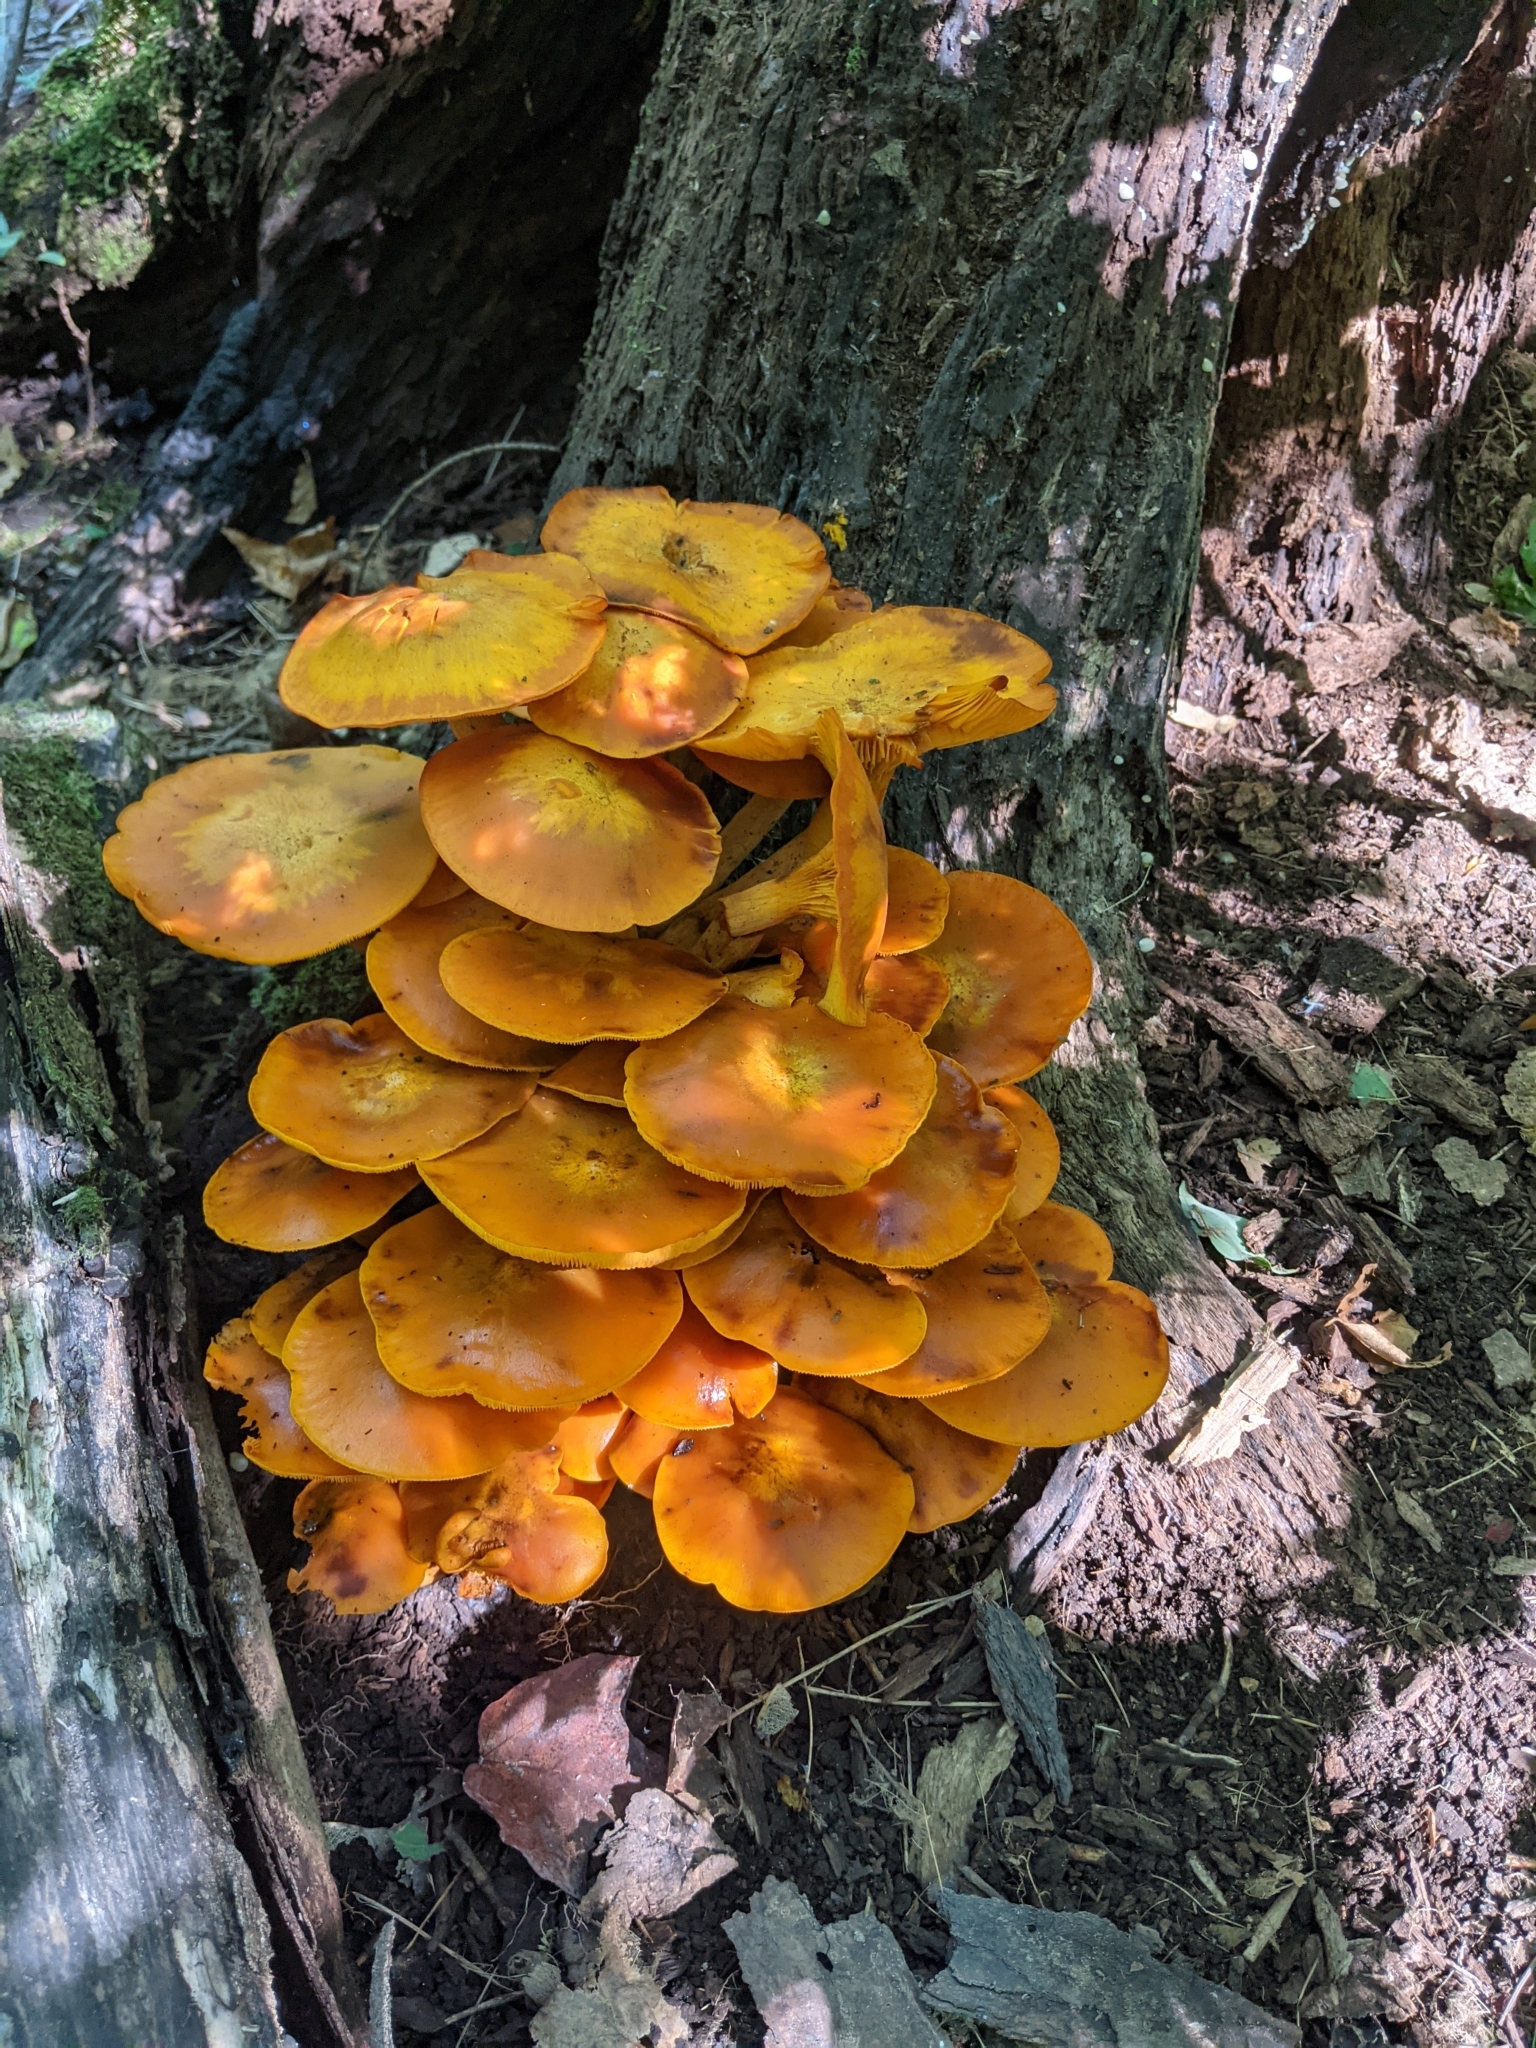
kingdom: Fungi
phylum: Basidiomycota
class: Agaricomycetes
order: Agaricales
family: Omphalotaceae
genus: Omphalotus
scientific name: Omphalotus illudens
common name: Jack o lantern
